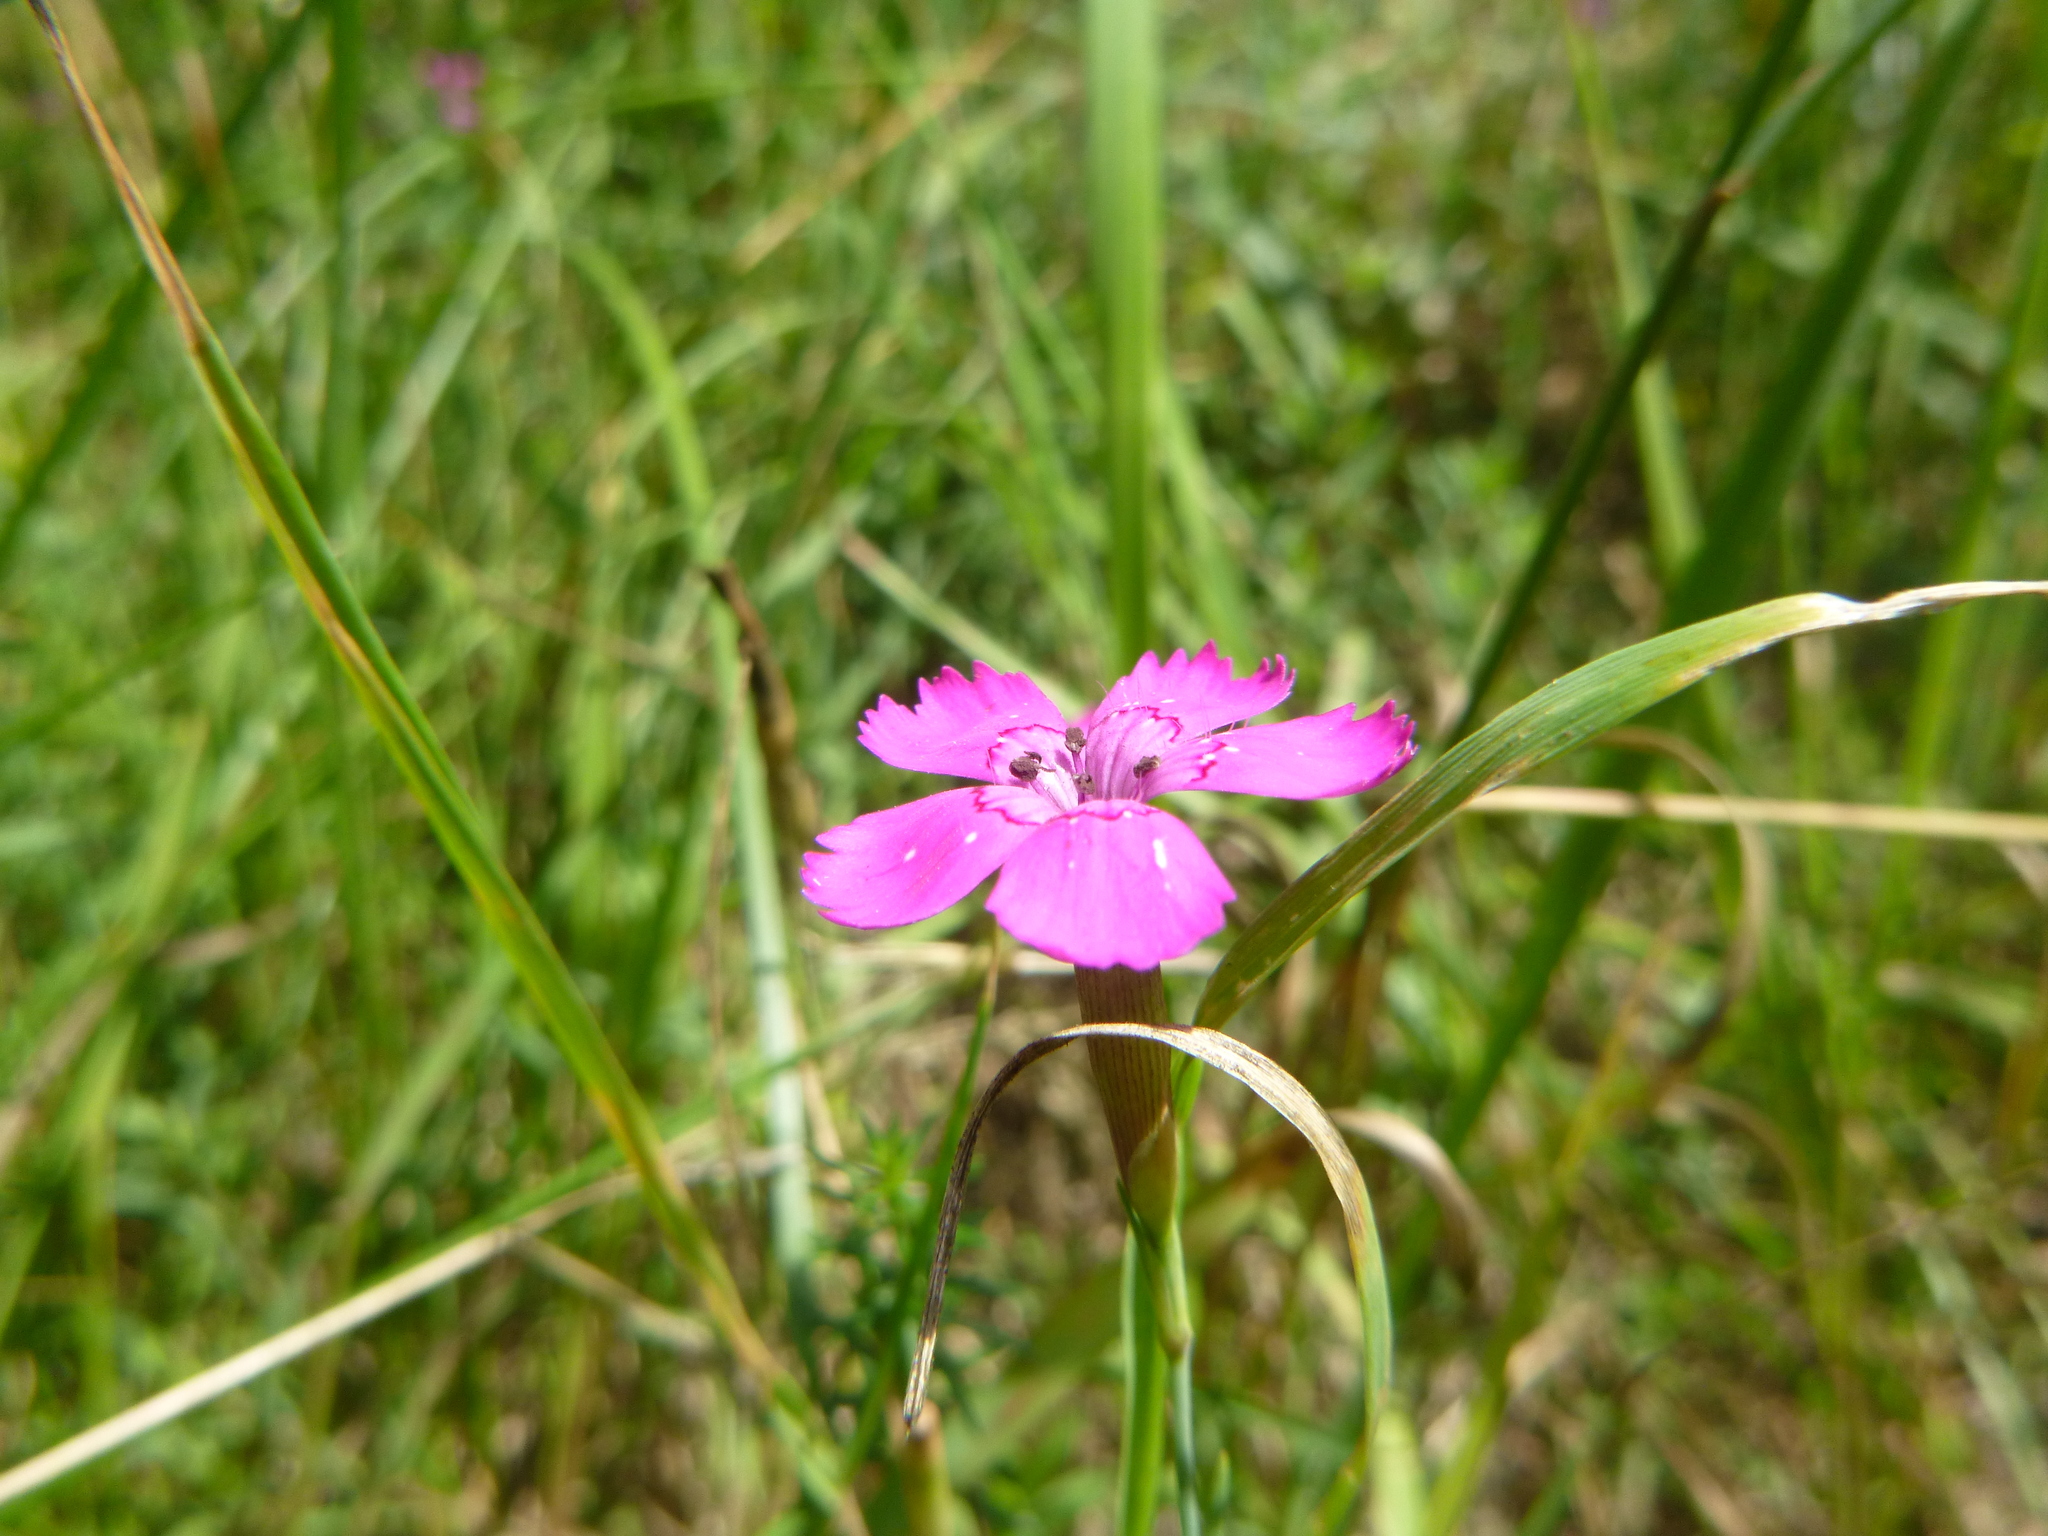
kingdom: Plantae
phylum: Tracheophyta
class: Magnoliopsida
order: Caryophyllales
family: Caryophyllaceae
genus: Dianthus
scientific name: Dianthus deltoides
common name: Maiden pink
